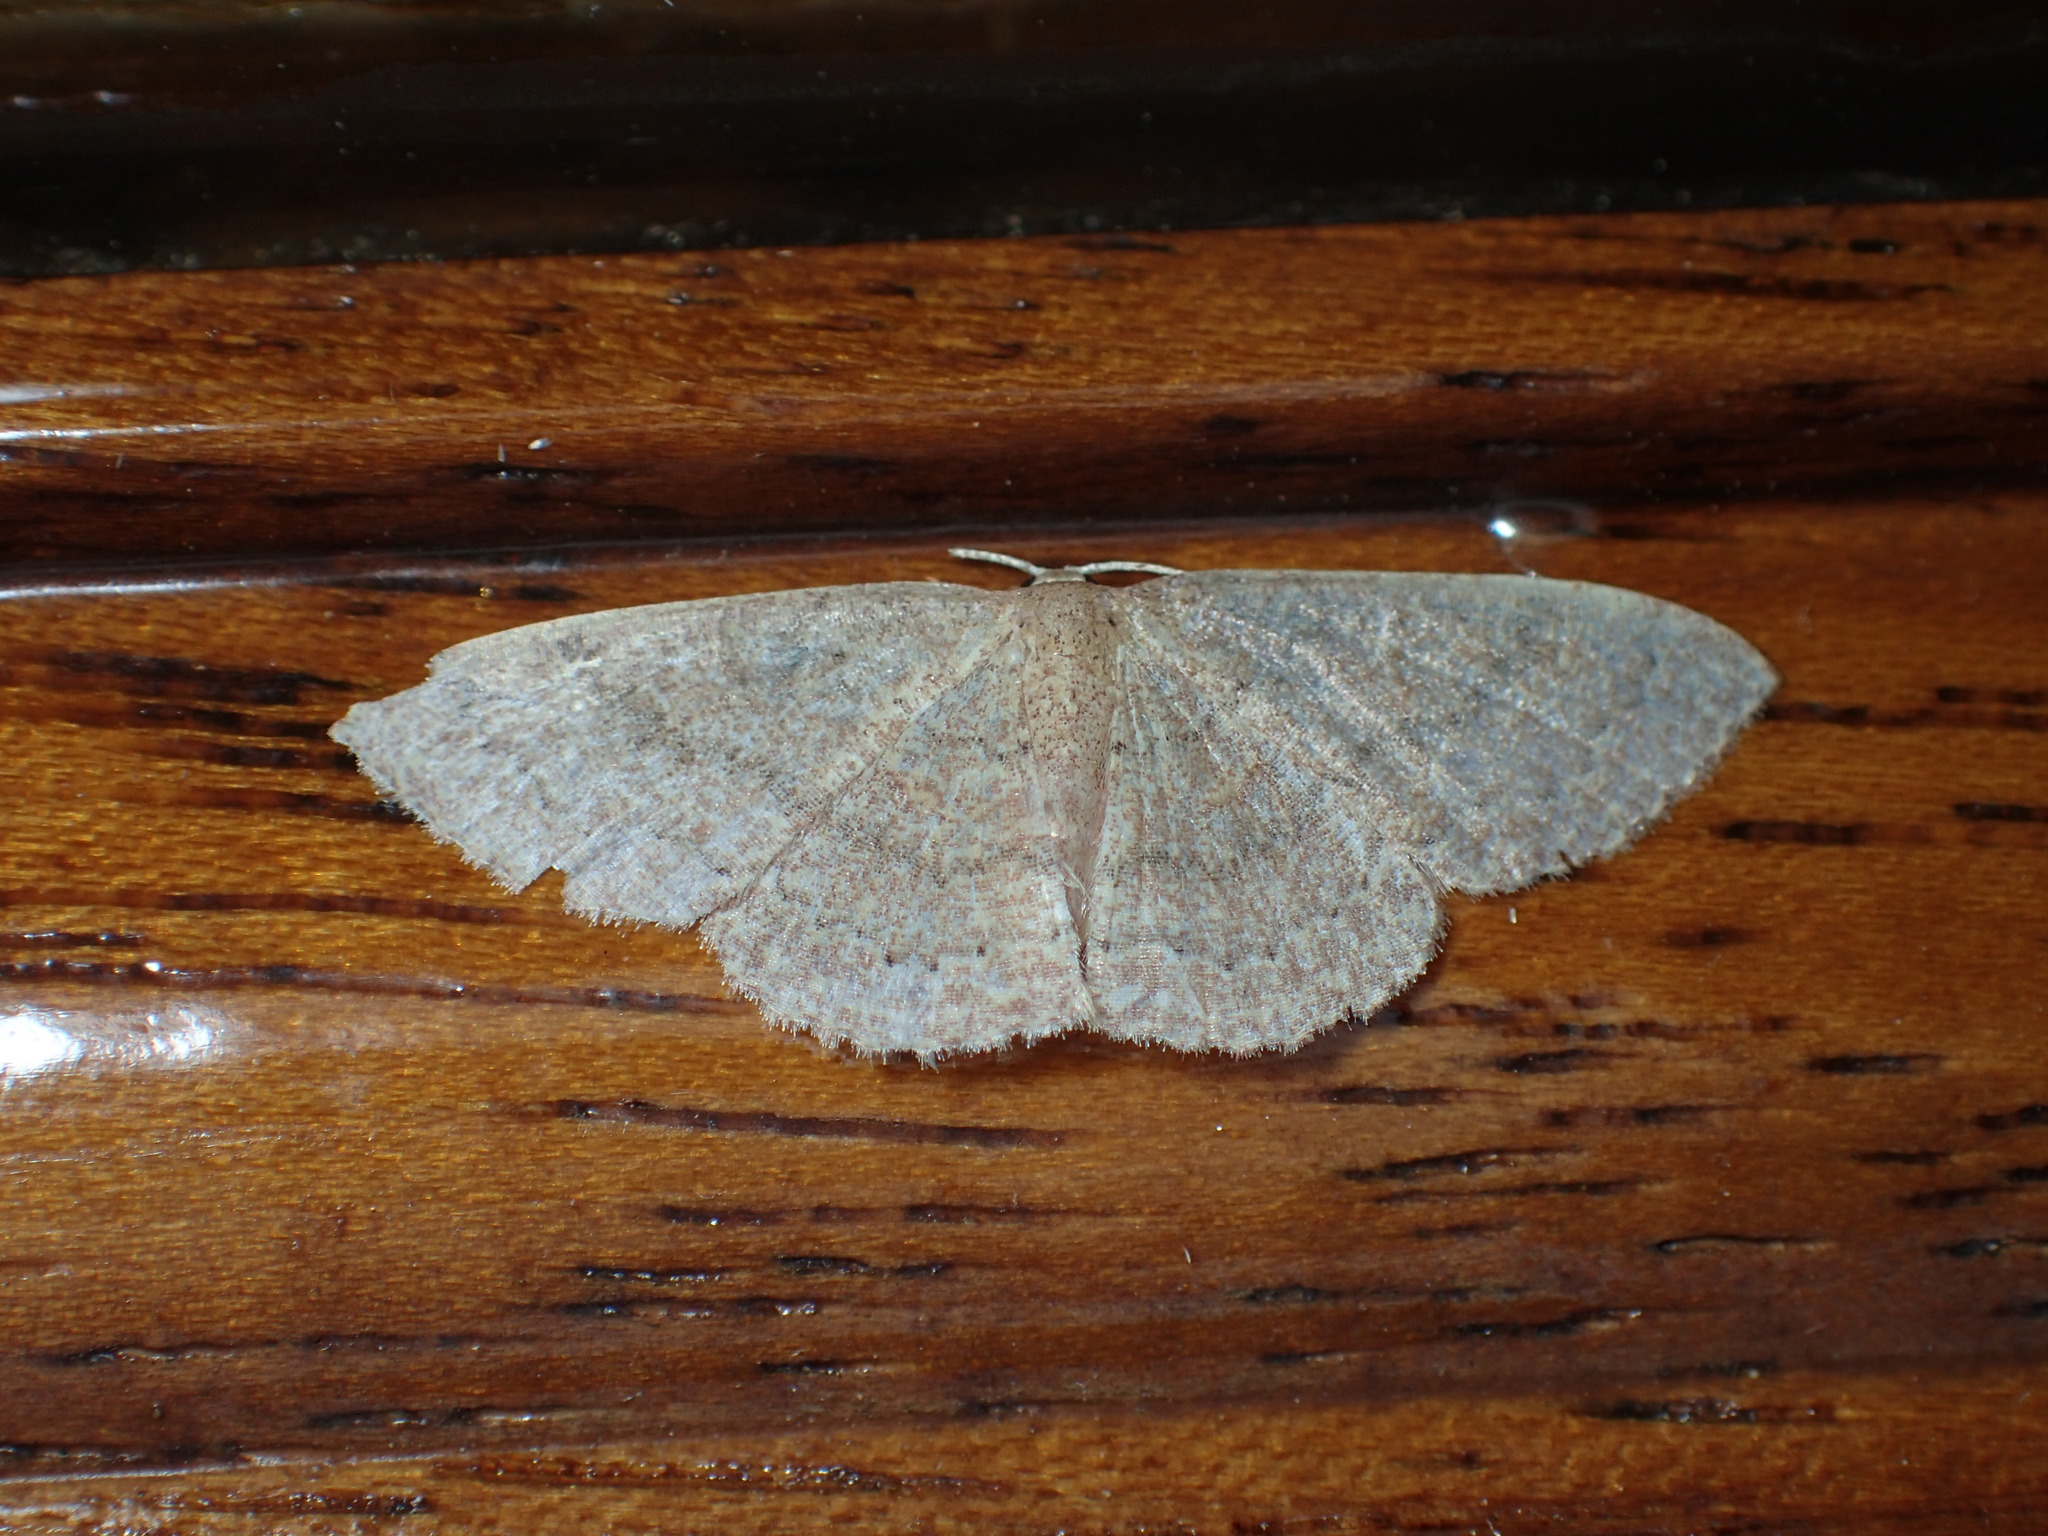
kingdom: Animalia
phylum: Arthropoda
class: Insecta
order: Lepidoptera
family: Geometridae
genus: Pleuroprucha
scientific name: Pleuroprucha insulsaria
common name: Common tan wave
